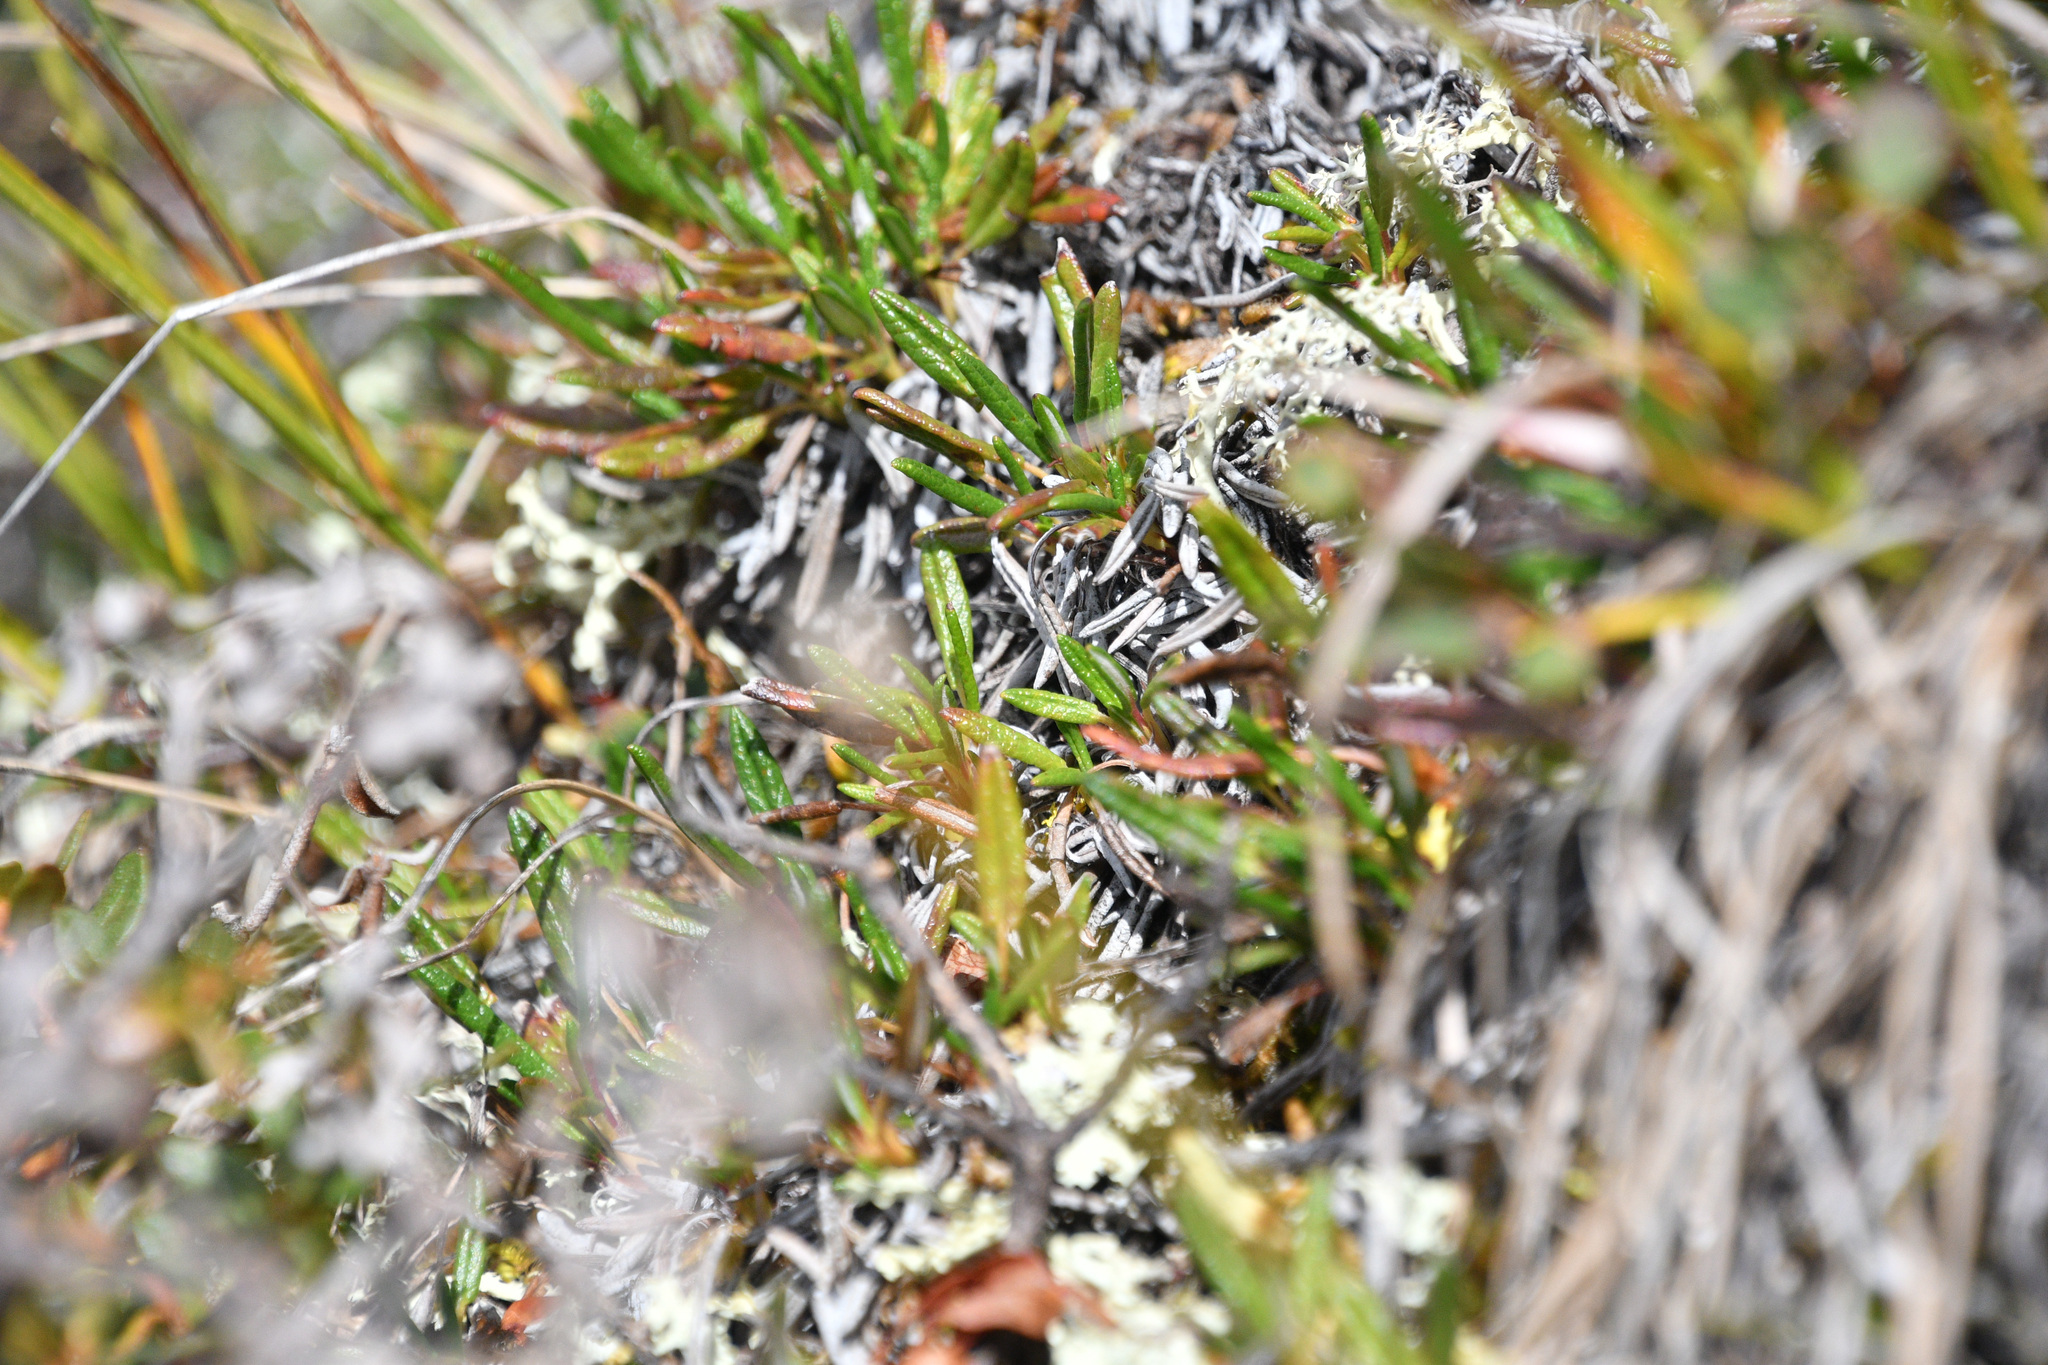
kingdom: Plantae
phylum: Tracheophyta
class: Magnoliopsida
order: Rosales
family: Rosaceae
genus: Dryas
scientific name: Dryas integrifolia
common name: Entire-leaved mountain avens
